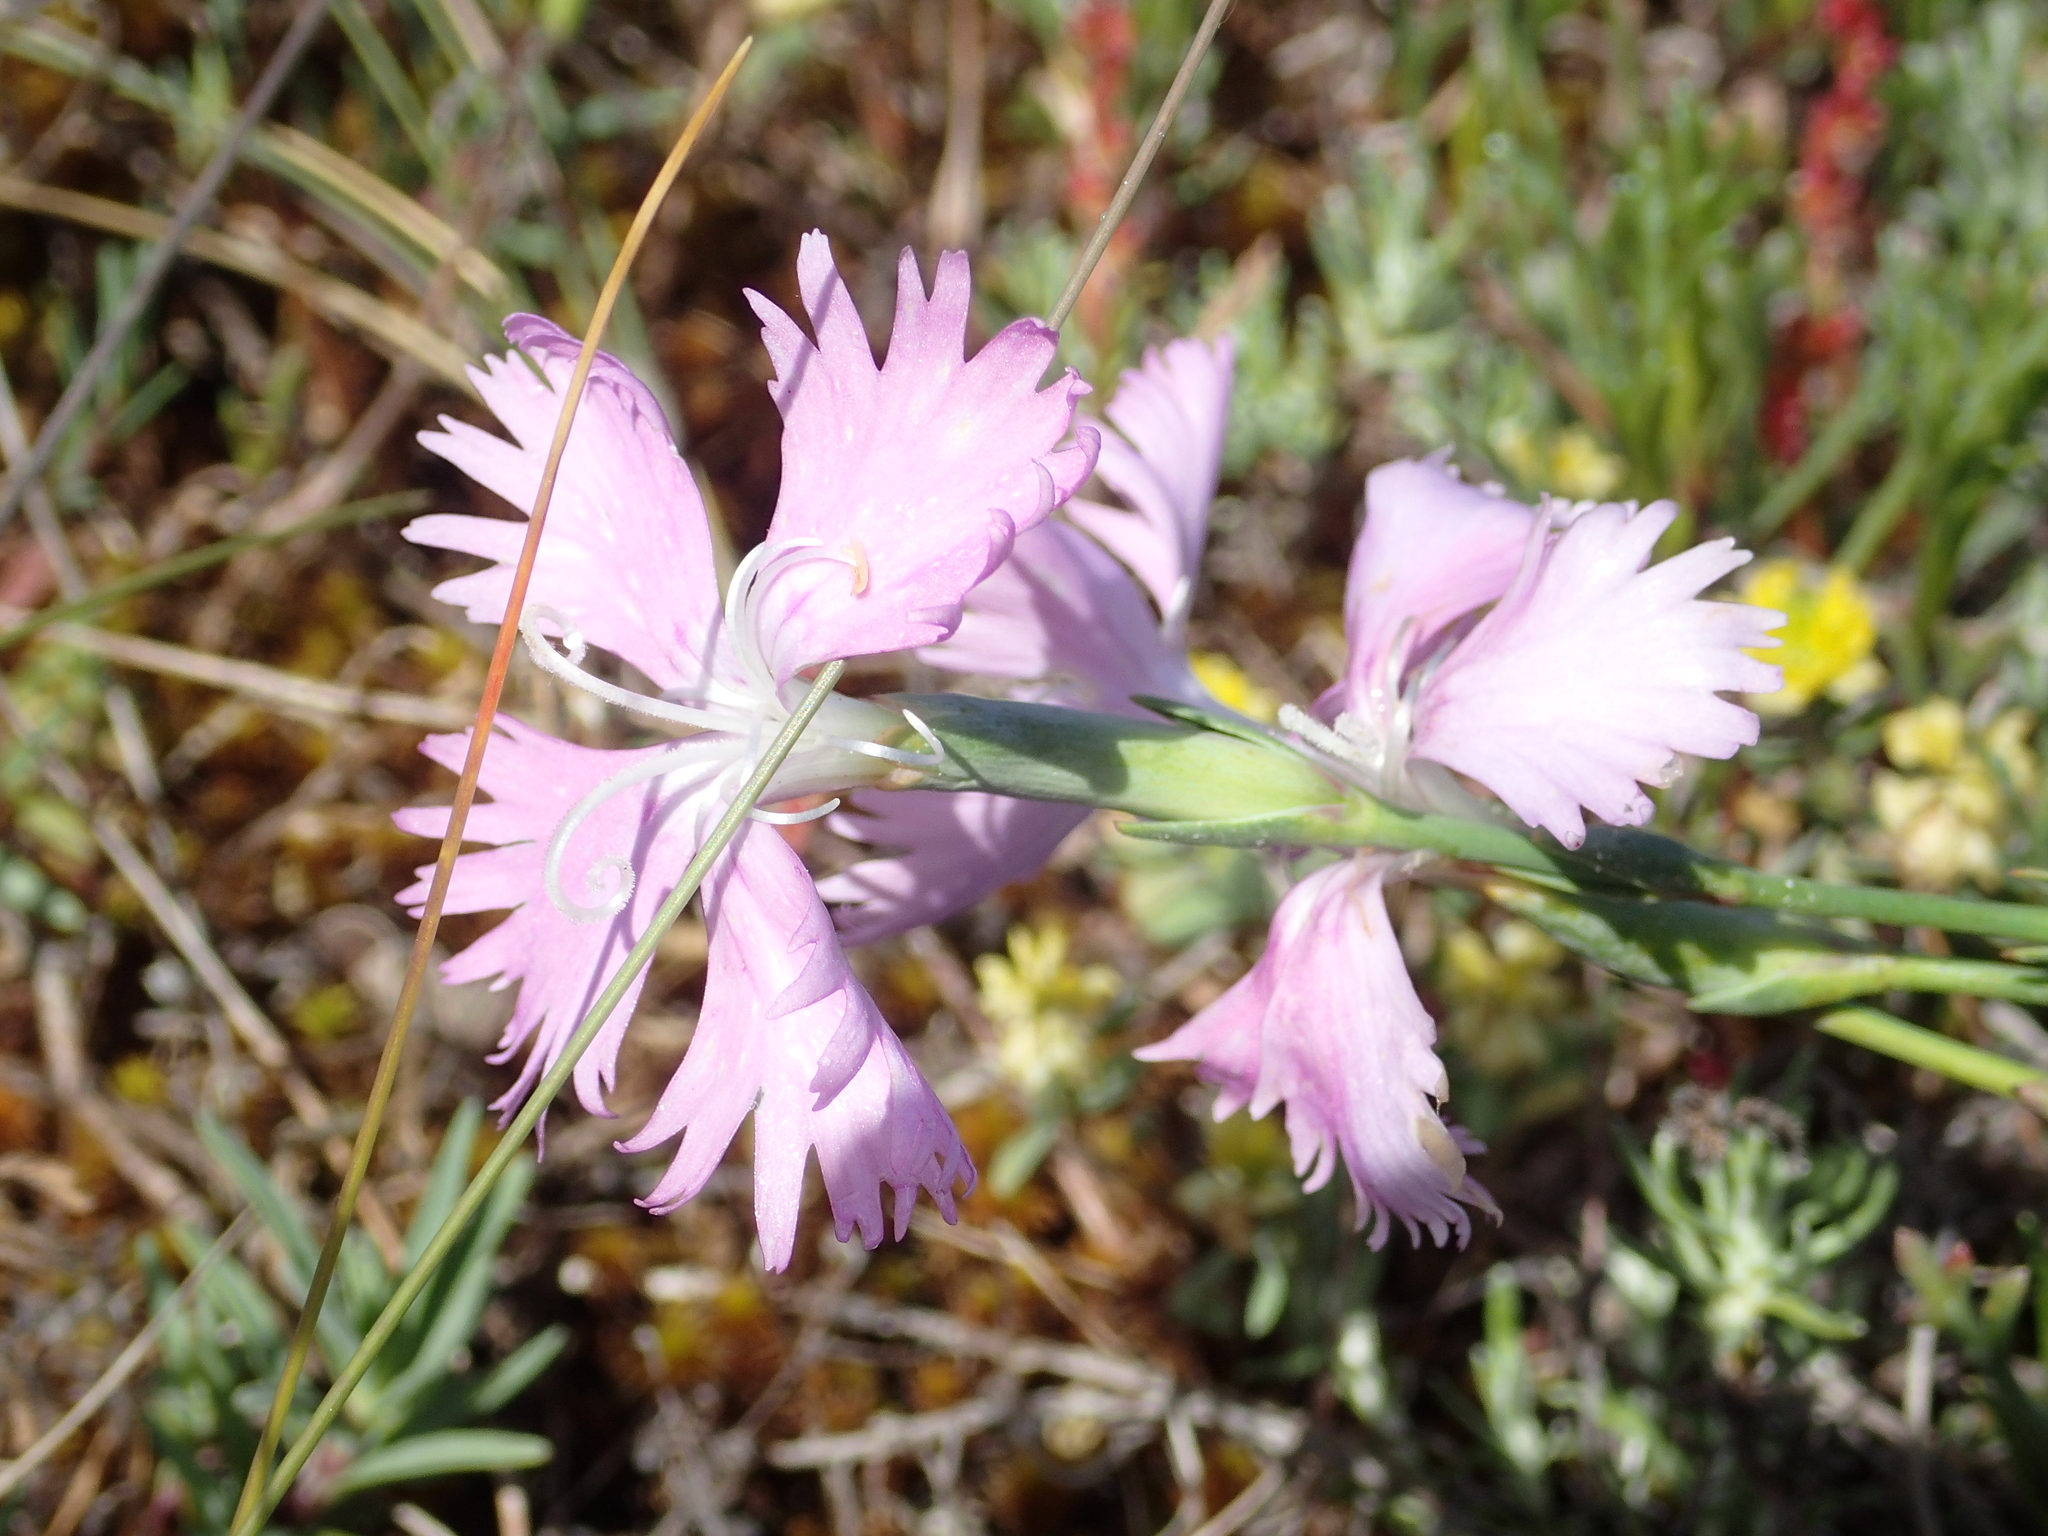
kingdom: Plantae
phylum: Tracheophyta
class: Magnoliopsida
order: Caryophyllales
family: Caryophyllaceae
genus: Dianthus
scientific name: Dianthus gallicus
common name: Jersey pink
